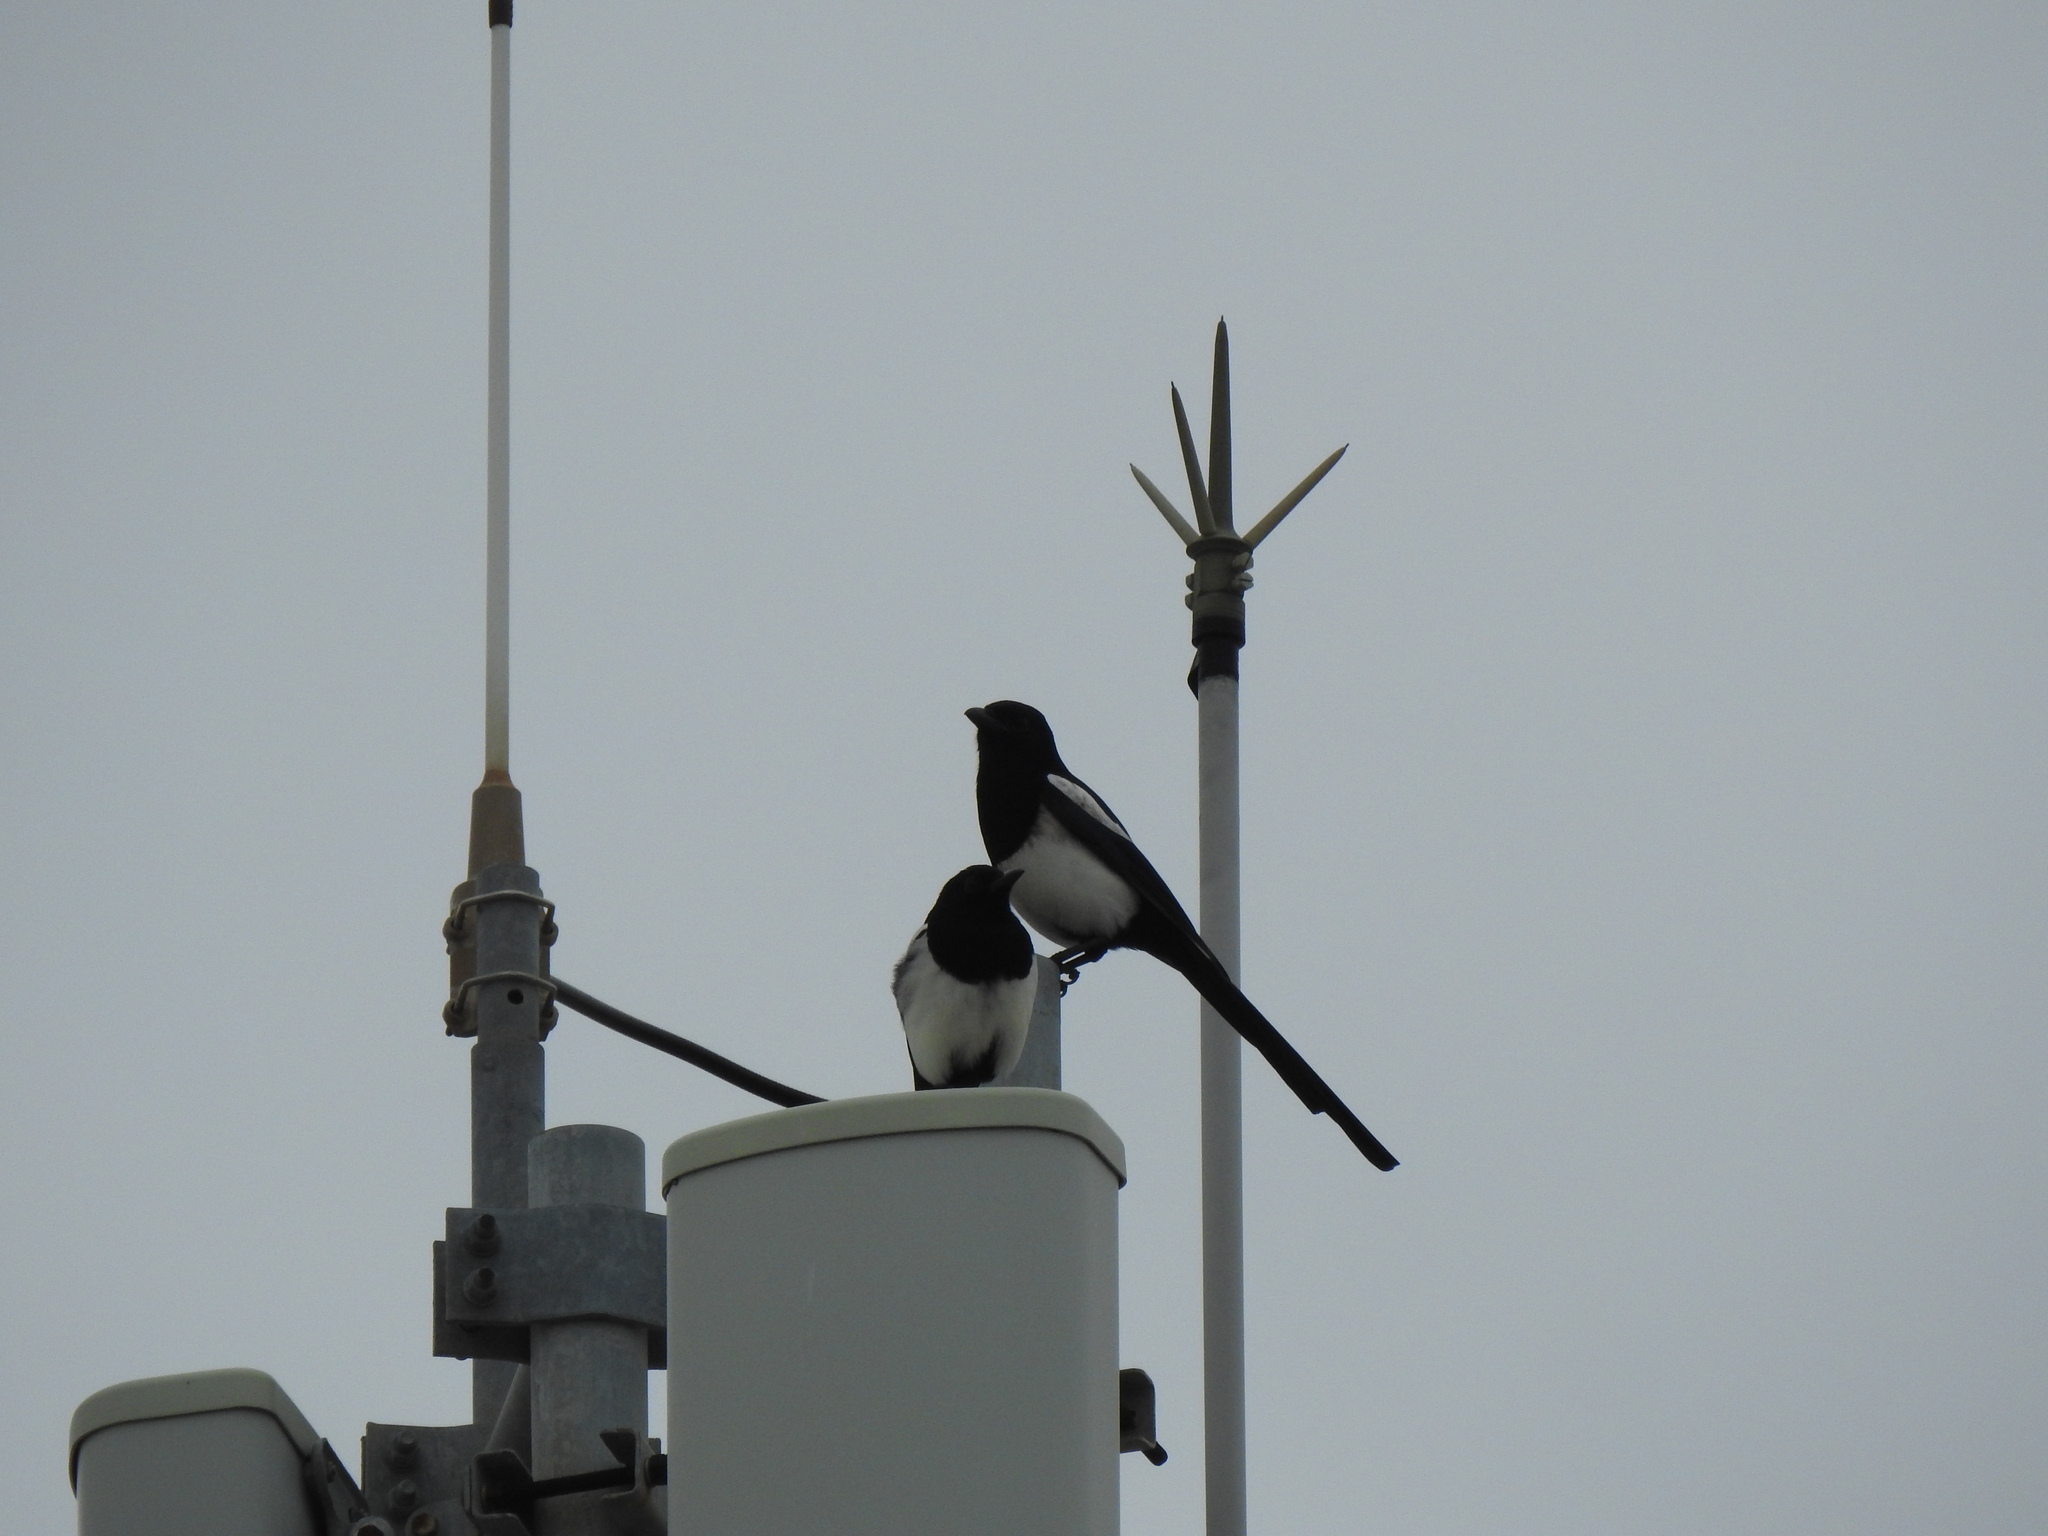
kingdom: Animalia
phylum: Chordata
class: Aves
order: Passeriformes
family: Corvidae
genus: Pica
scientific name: Pica pica
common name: Eurasian magpie
